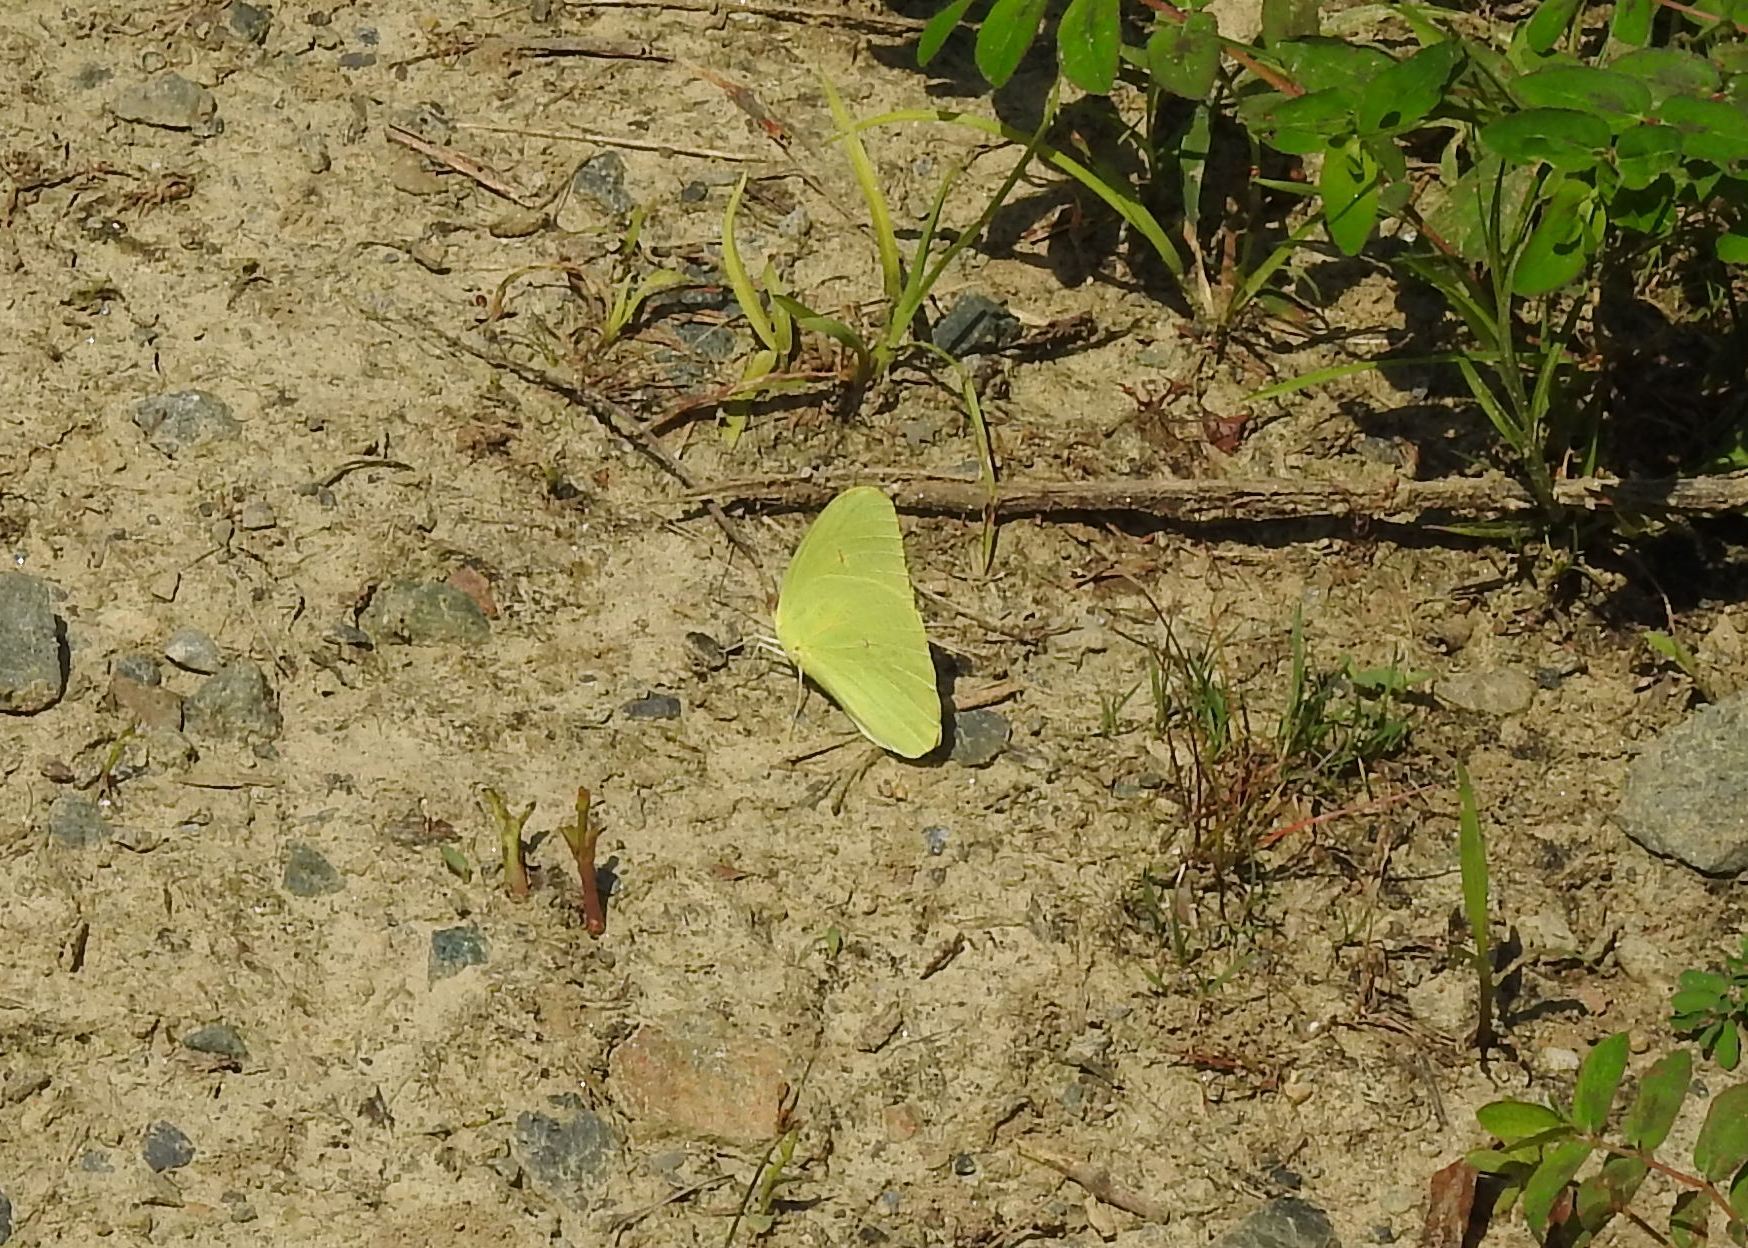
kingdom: Animalia
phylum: Arthropoda
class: Insecta
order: Lepidoptera
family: Pieridae
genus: Phoebis
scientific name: Phoebis sennae
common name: Cloudless sulphur
